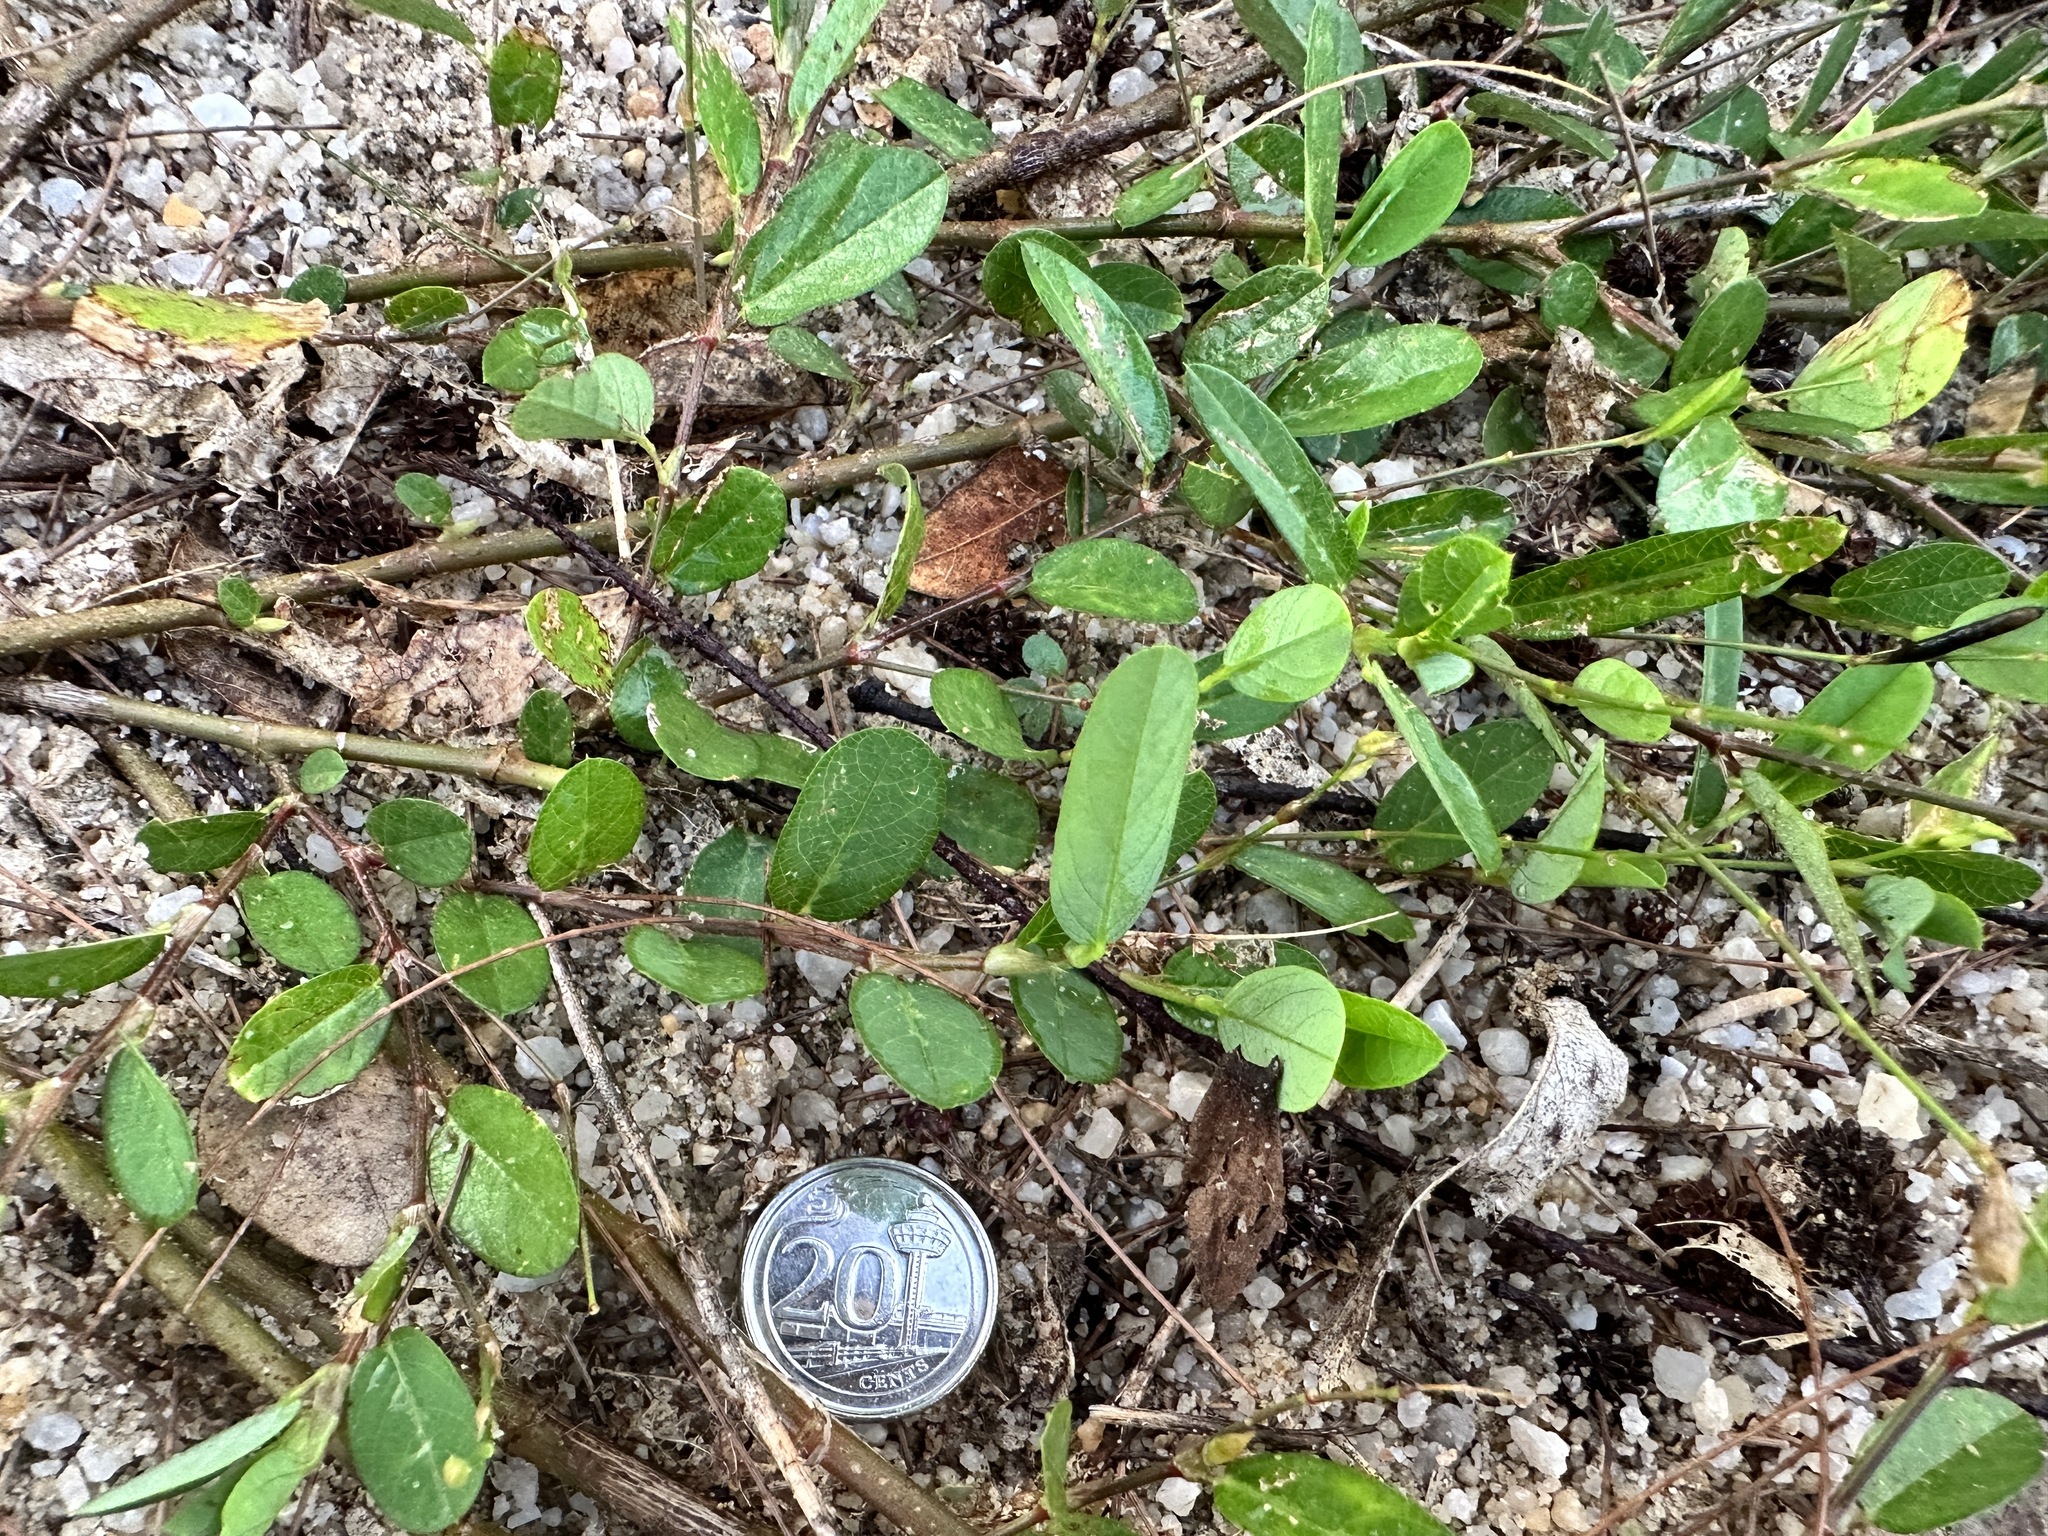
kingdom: Plantae
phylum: Tracheophyta
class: Magnoliopsida
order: Fabales
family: Fabaceae
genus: Alysicarpus
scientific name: Alysicarpus ovalifolius
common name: Alyce clover
